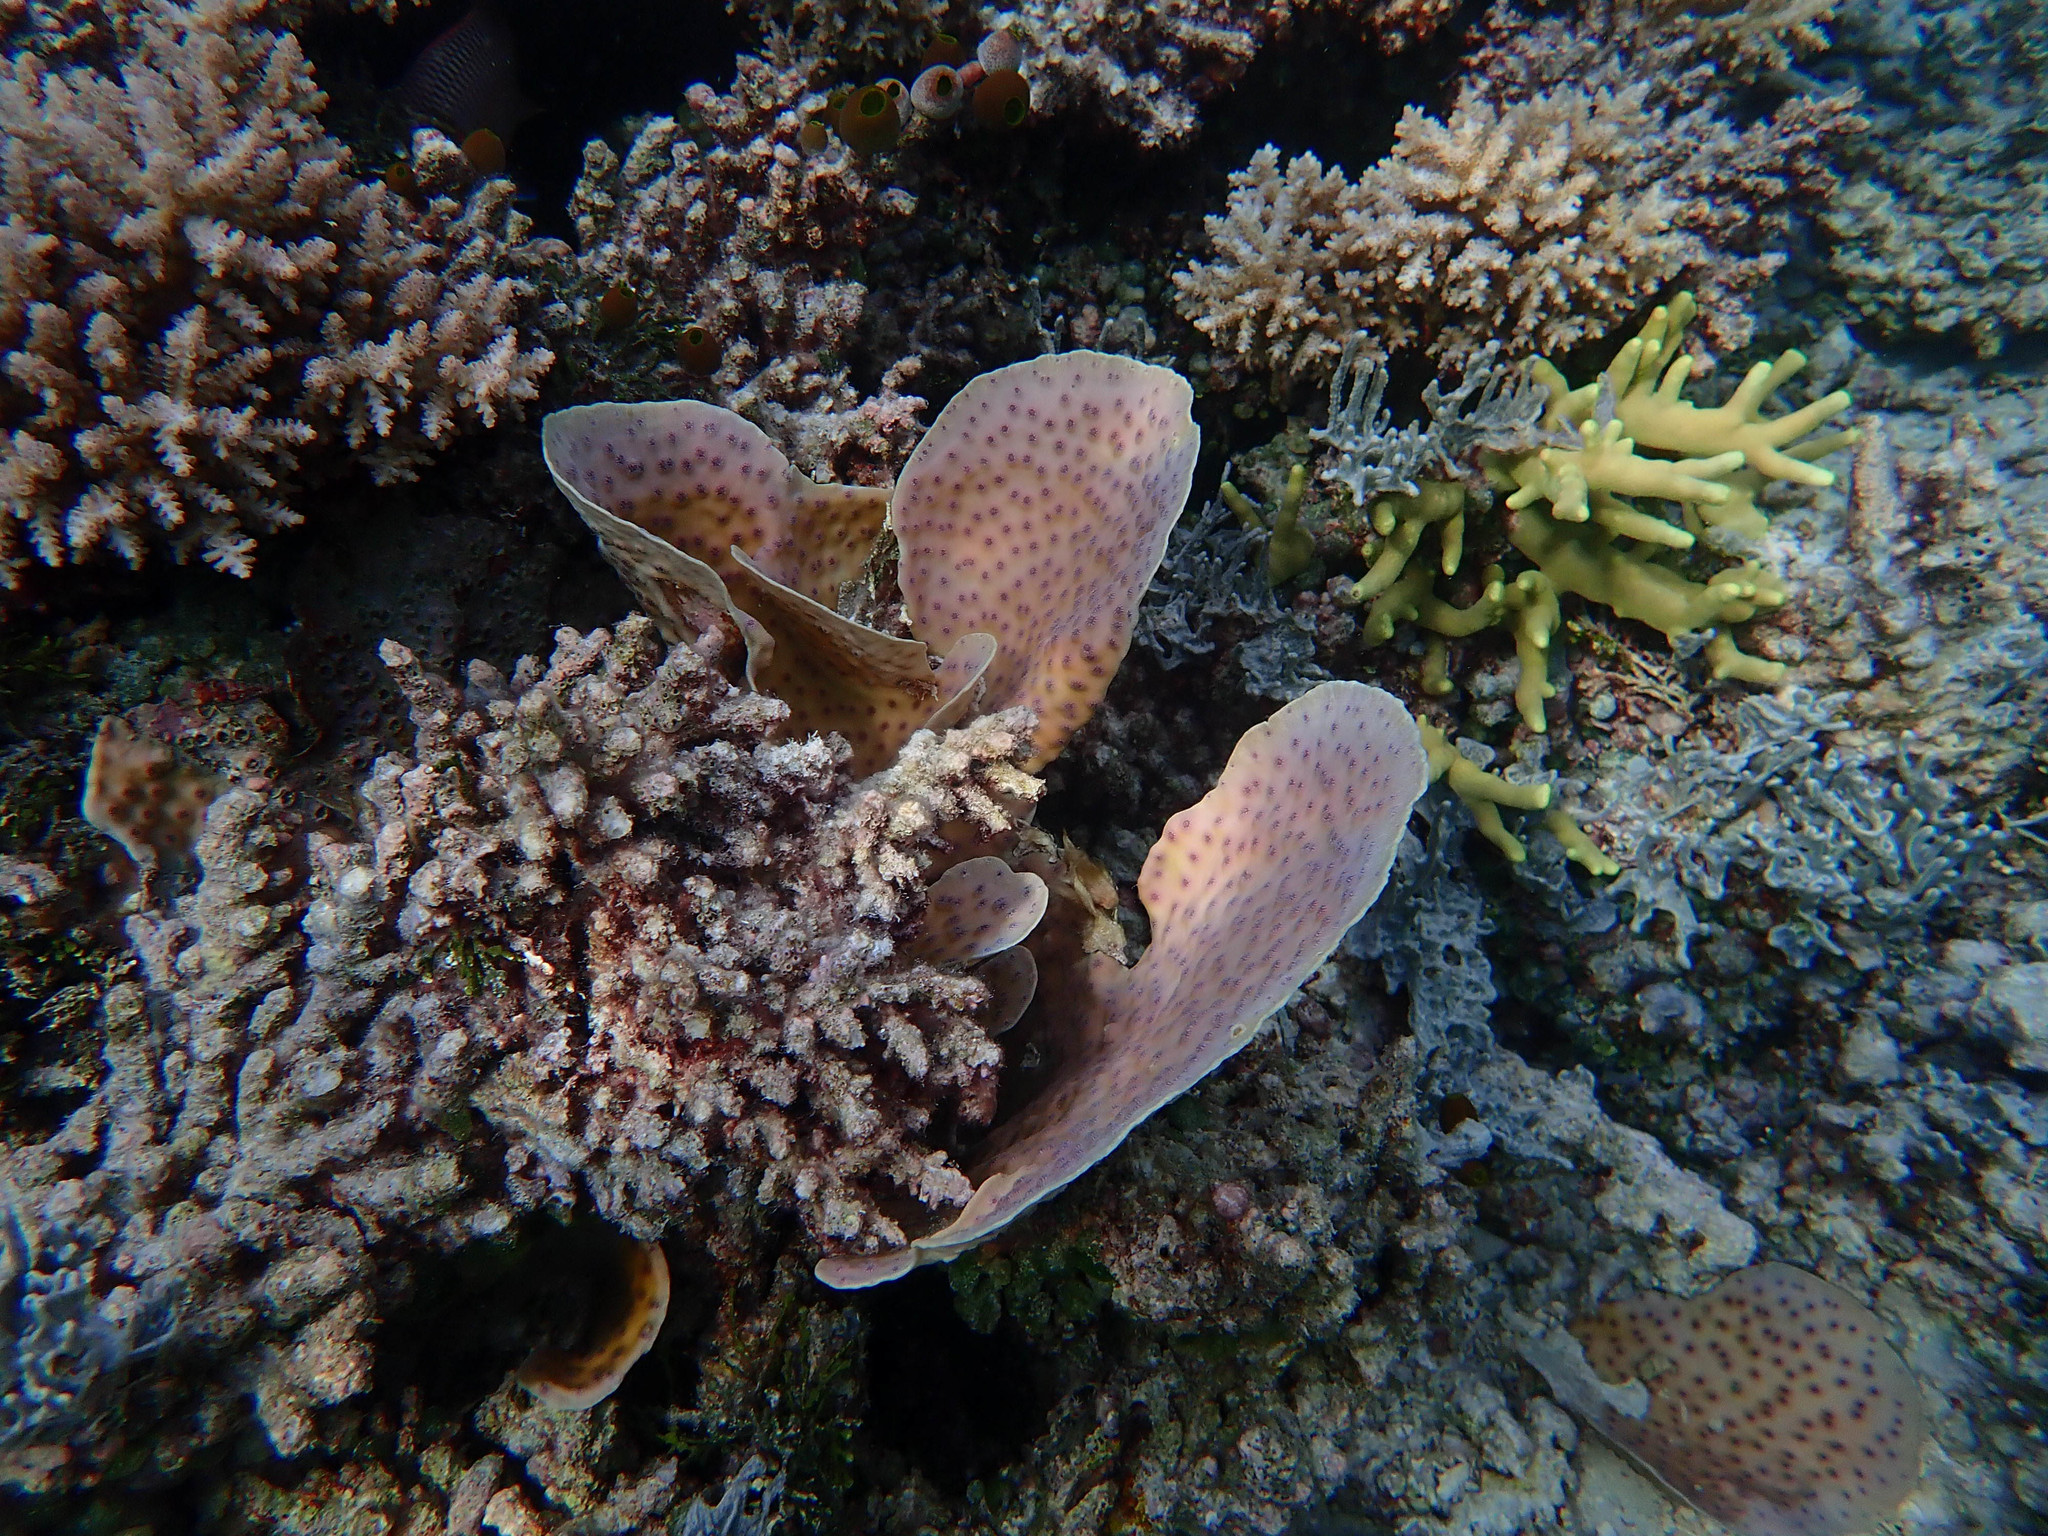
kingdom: Animalia
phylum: Cnidaria
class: Anthozoa
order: Scleractinia
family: Merulinidae
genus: Echinopora
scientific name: Echinopora lamellosa
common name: Hedgehog coral
